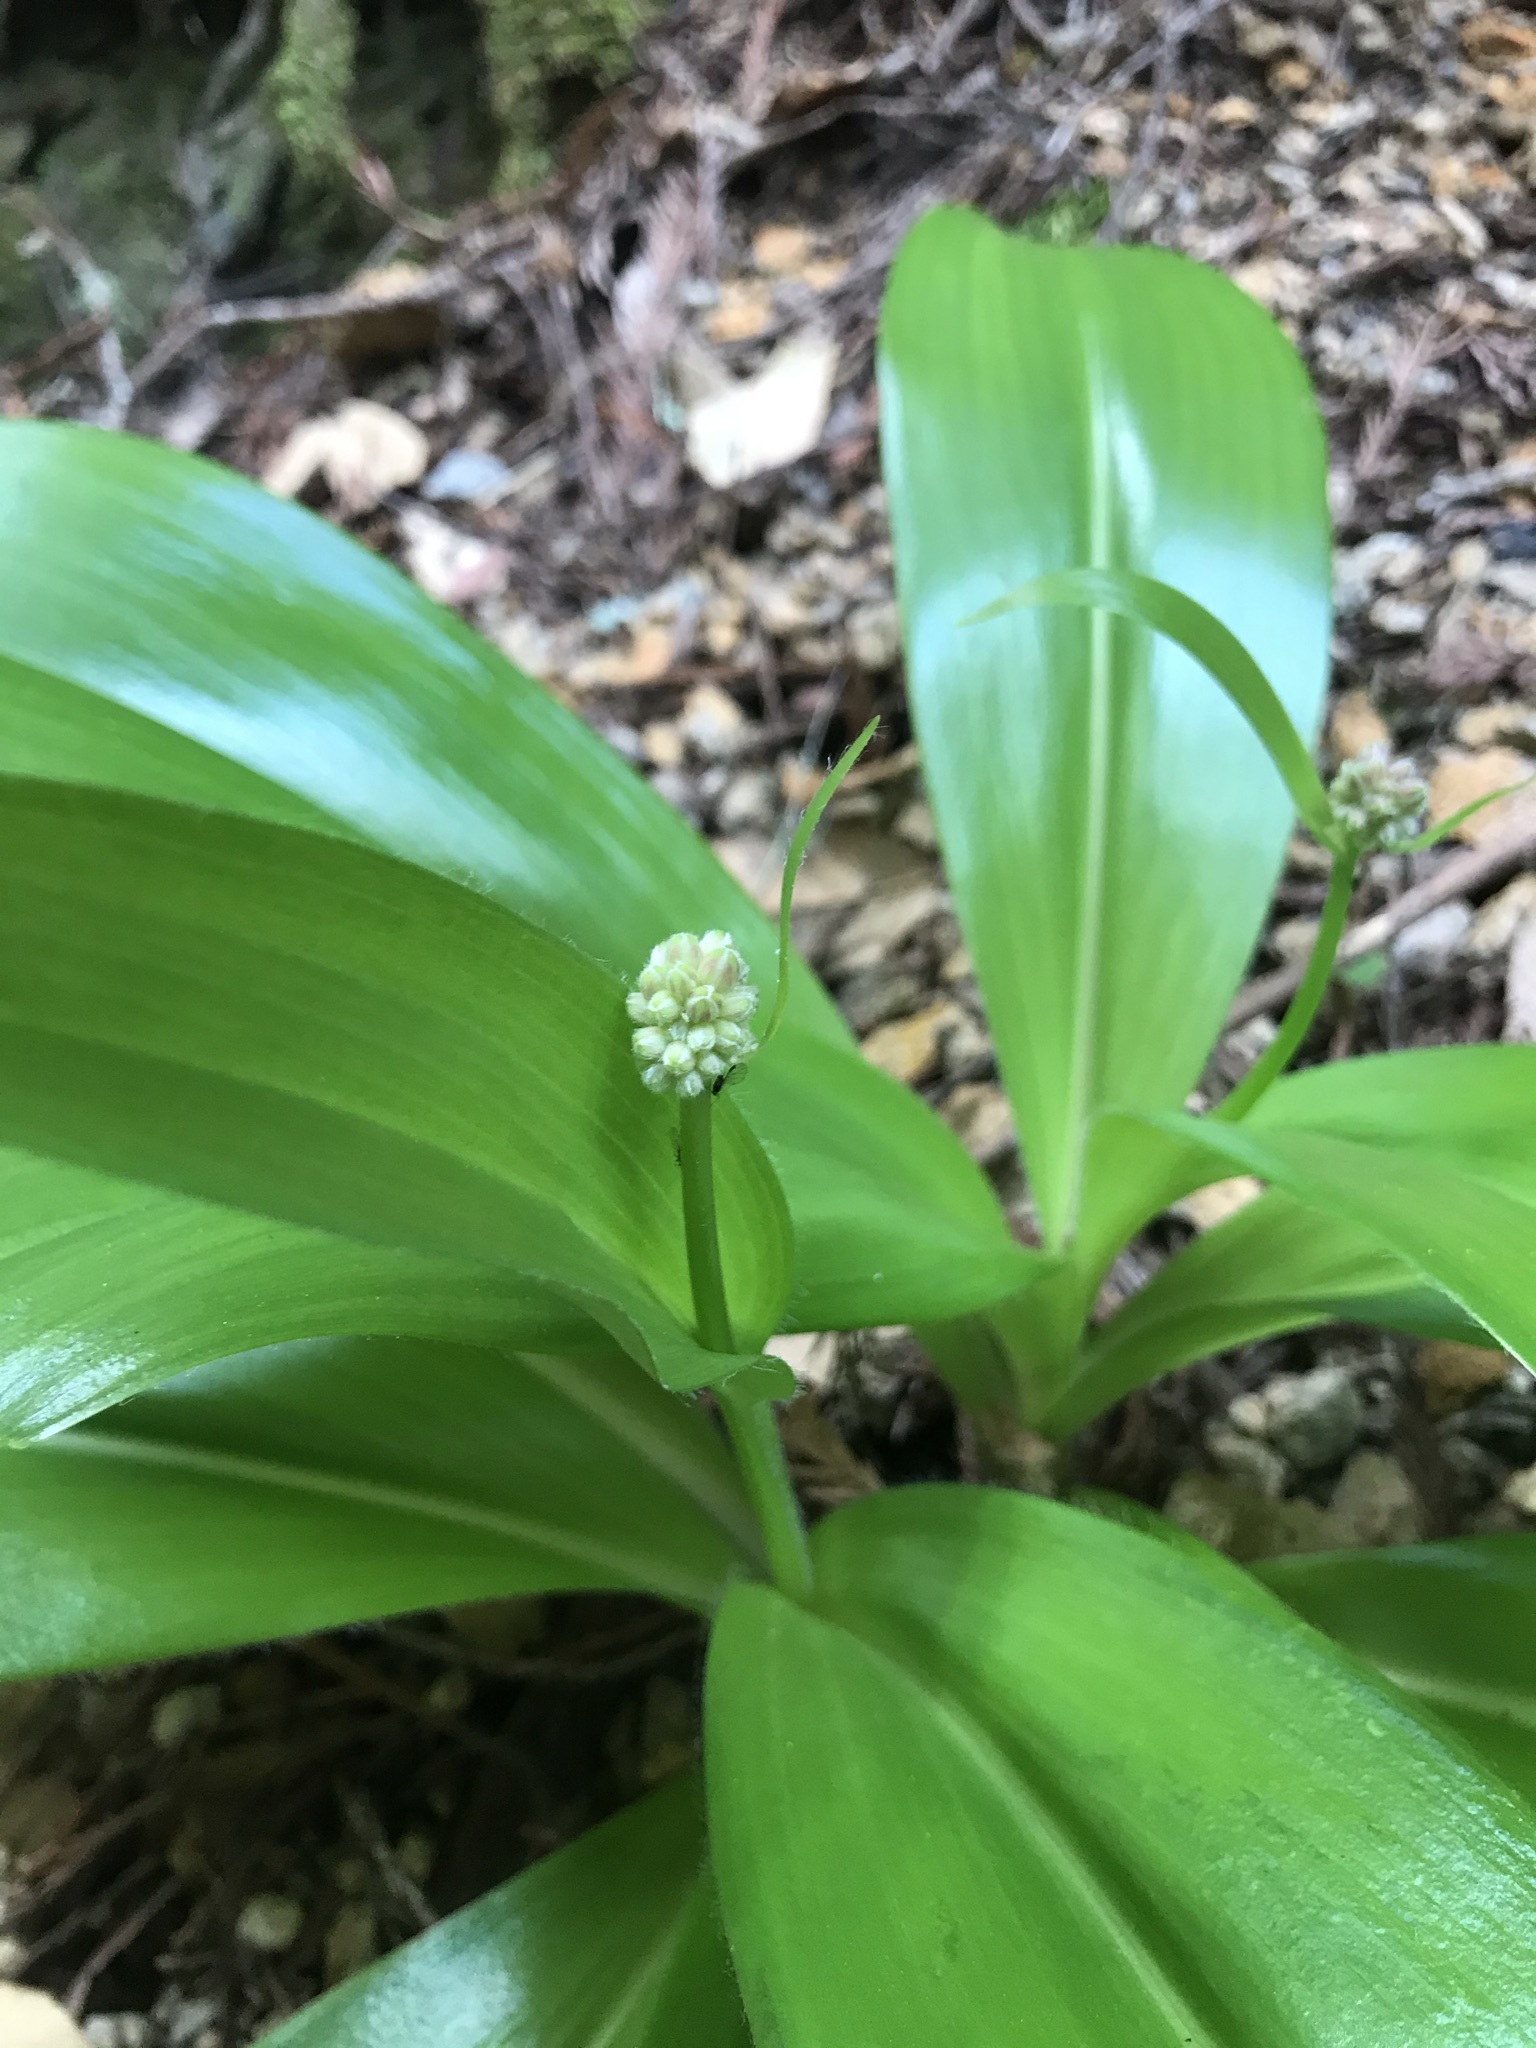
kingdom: Plantae
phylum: Tracheophyta
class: Liliopsida
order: Liliales
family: Liliaceae
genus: Clintonia
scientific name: Clintonia andrewsiana
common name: Red clintonia
